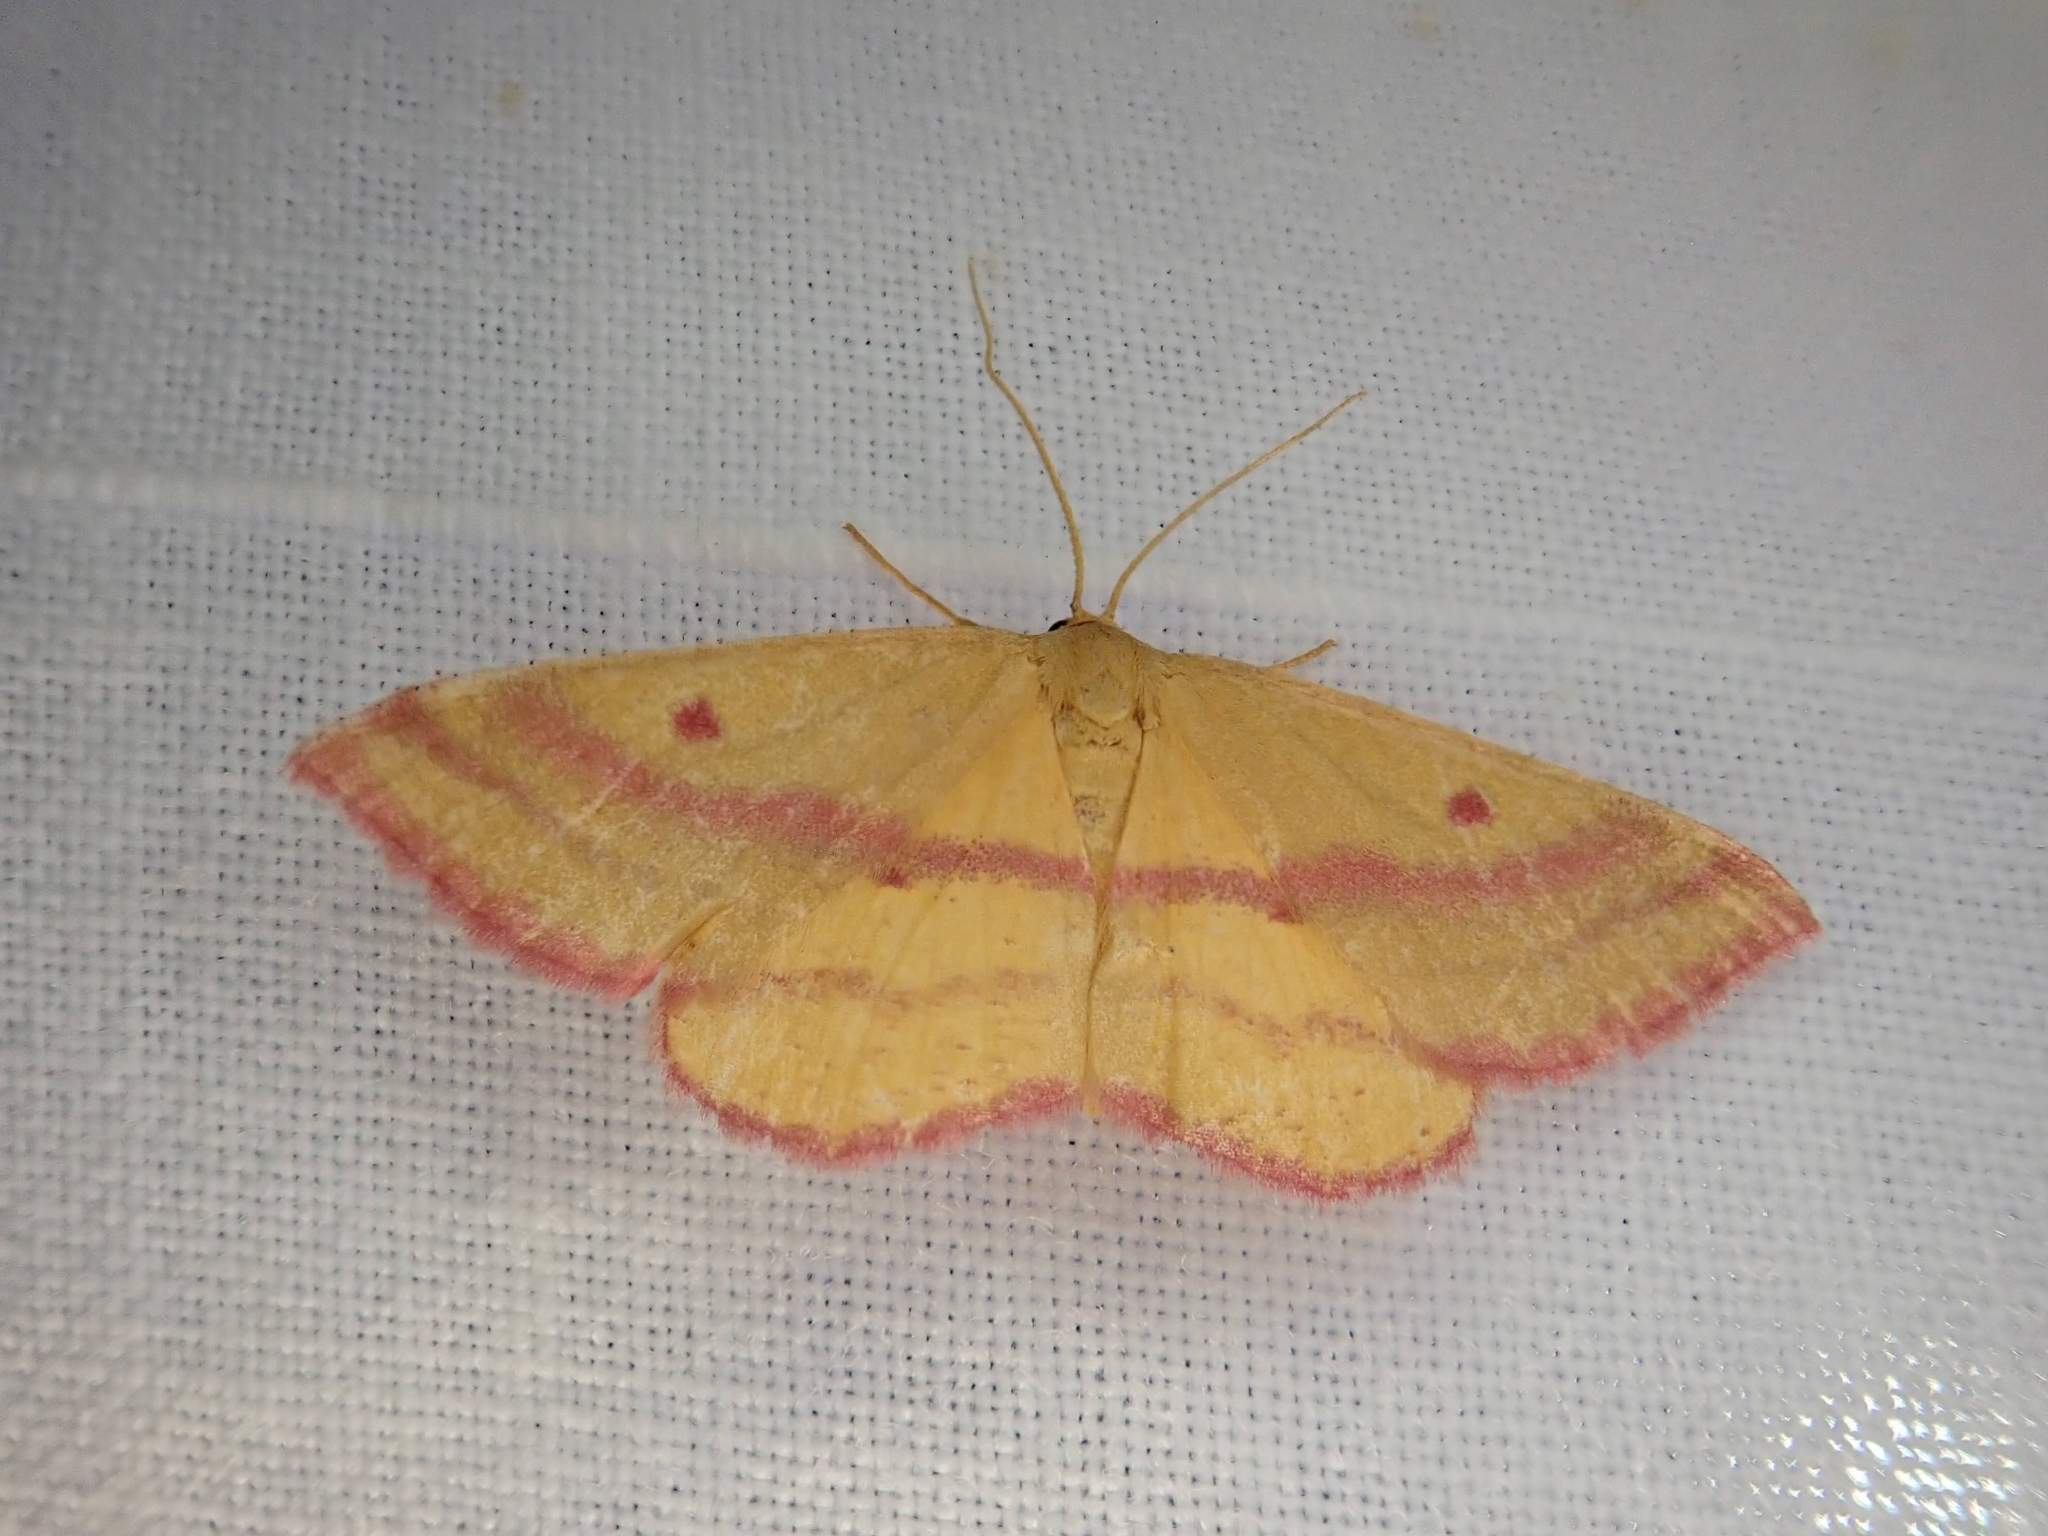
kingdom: Animalia
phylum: Arthropoda
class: Insecta
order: Lepidoptera
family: Geometridae
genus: Haematopis
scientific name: Haematopis grataria
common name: Chickweed geometer
